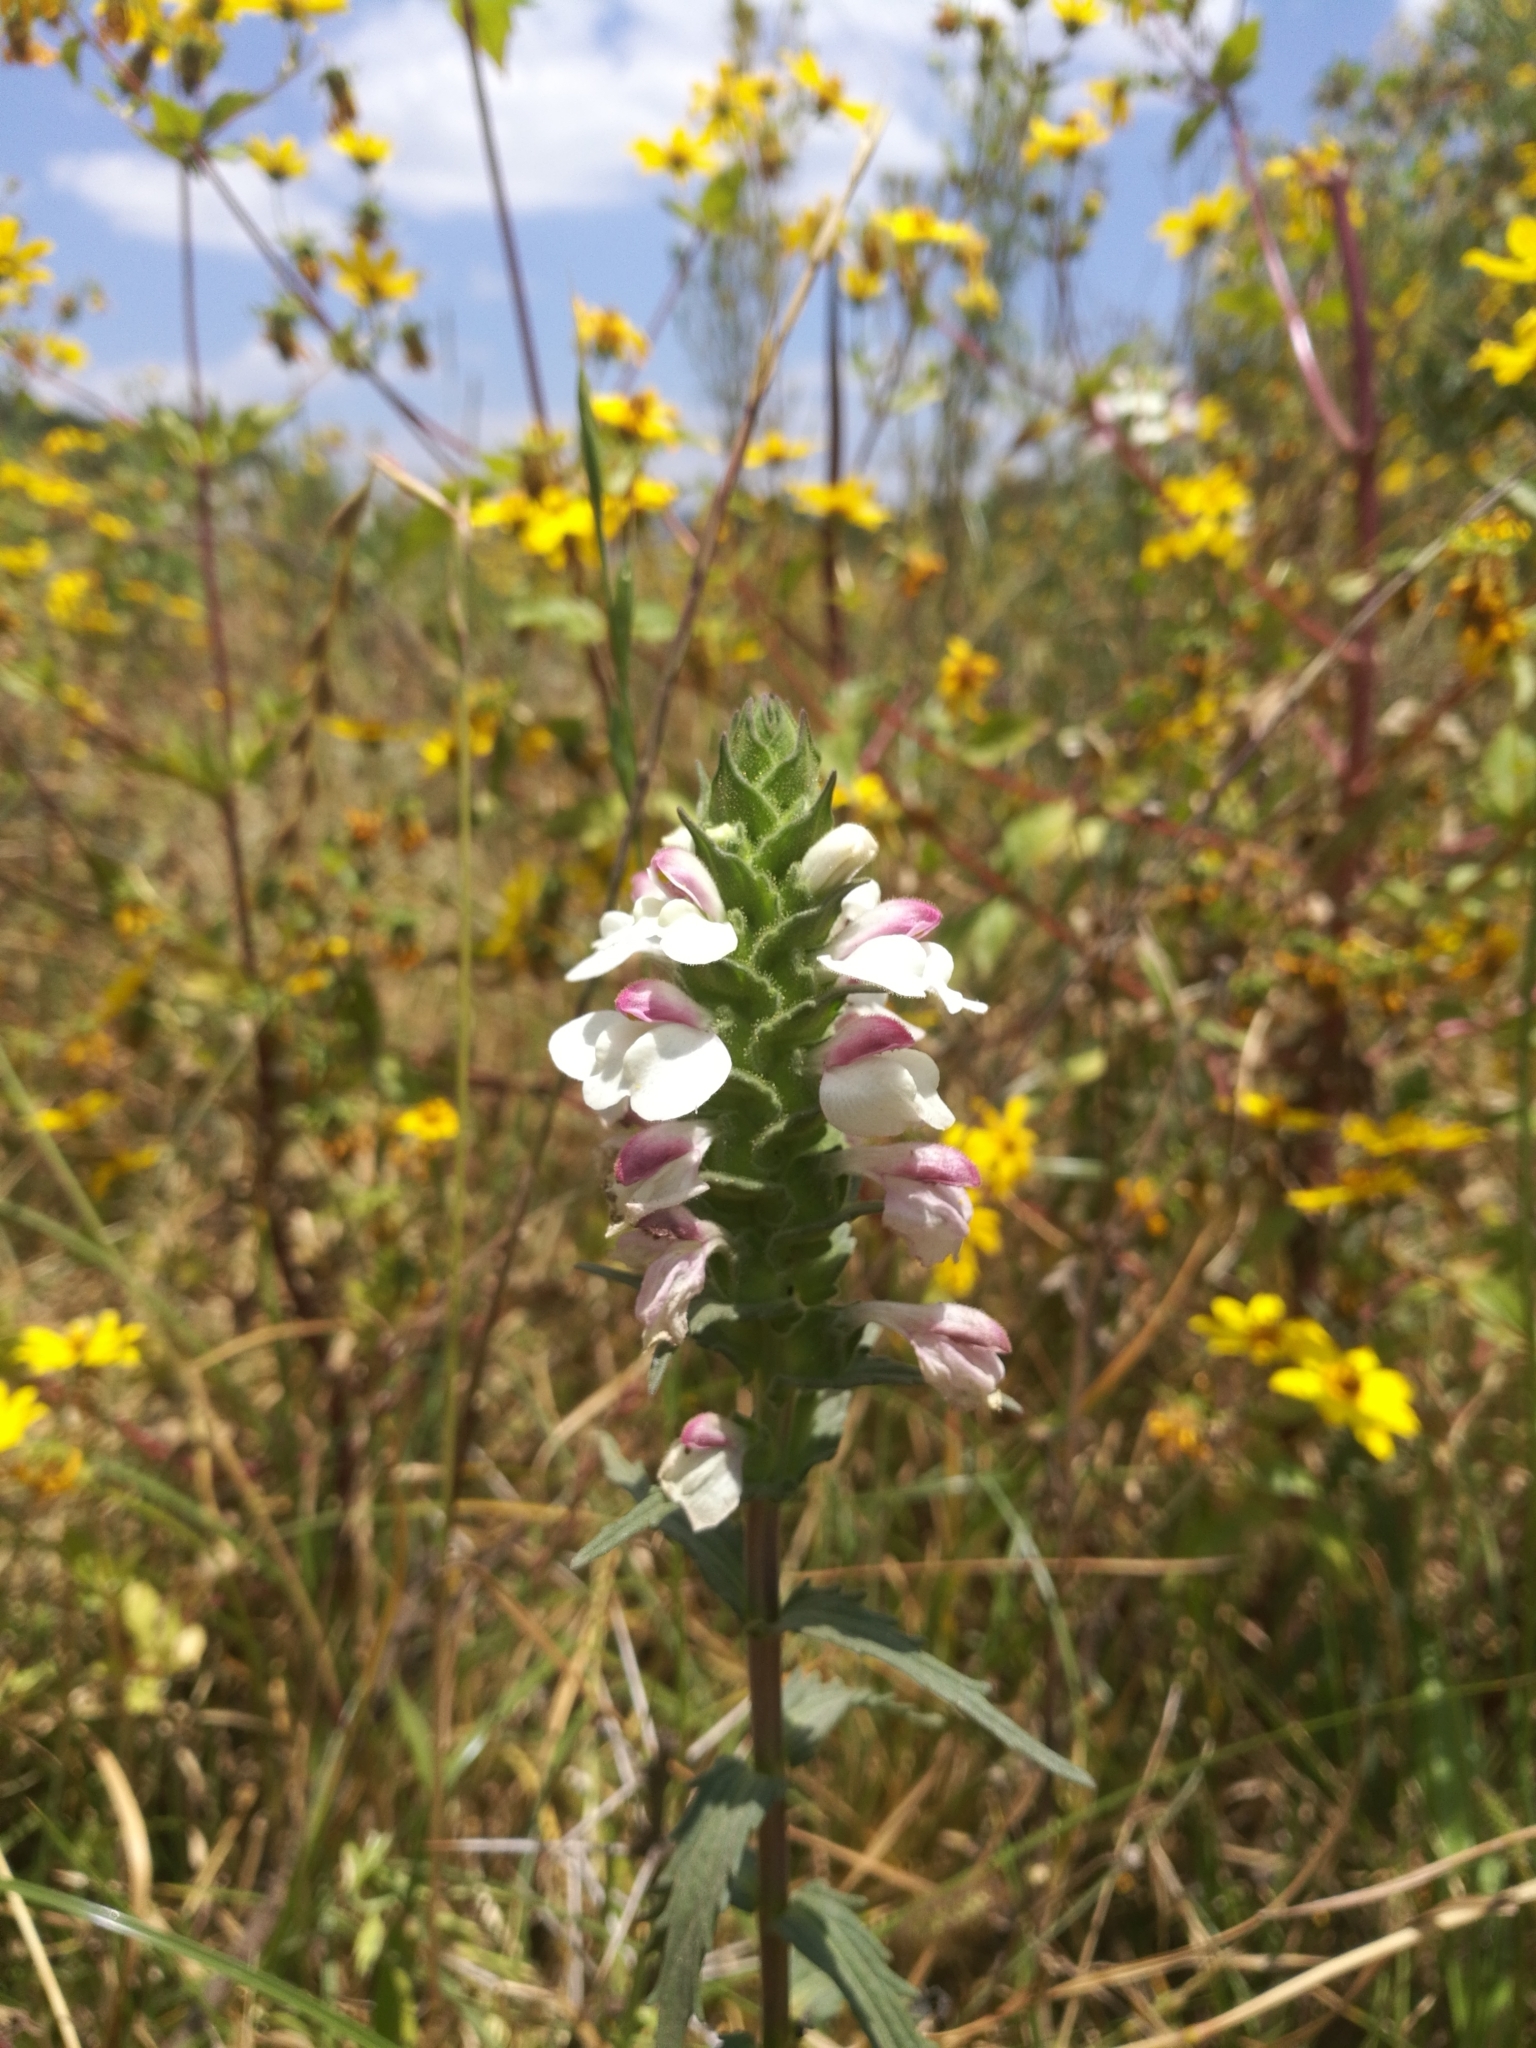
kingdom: Plantae
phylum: Tracheophyta
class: Magnoliopsida
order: Lamiales
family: Orobanchaceae
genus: Bellardia
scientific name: Bellardia trixago
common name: Mediterranean lineseed
